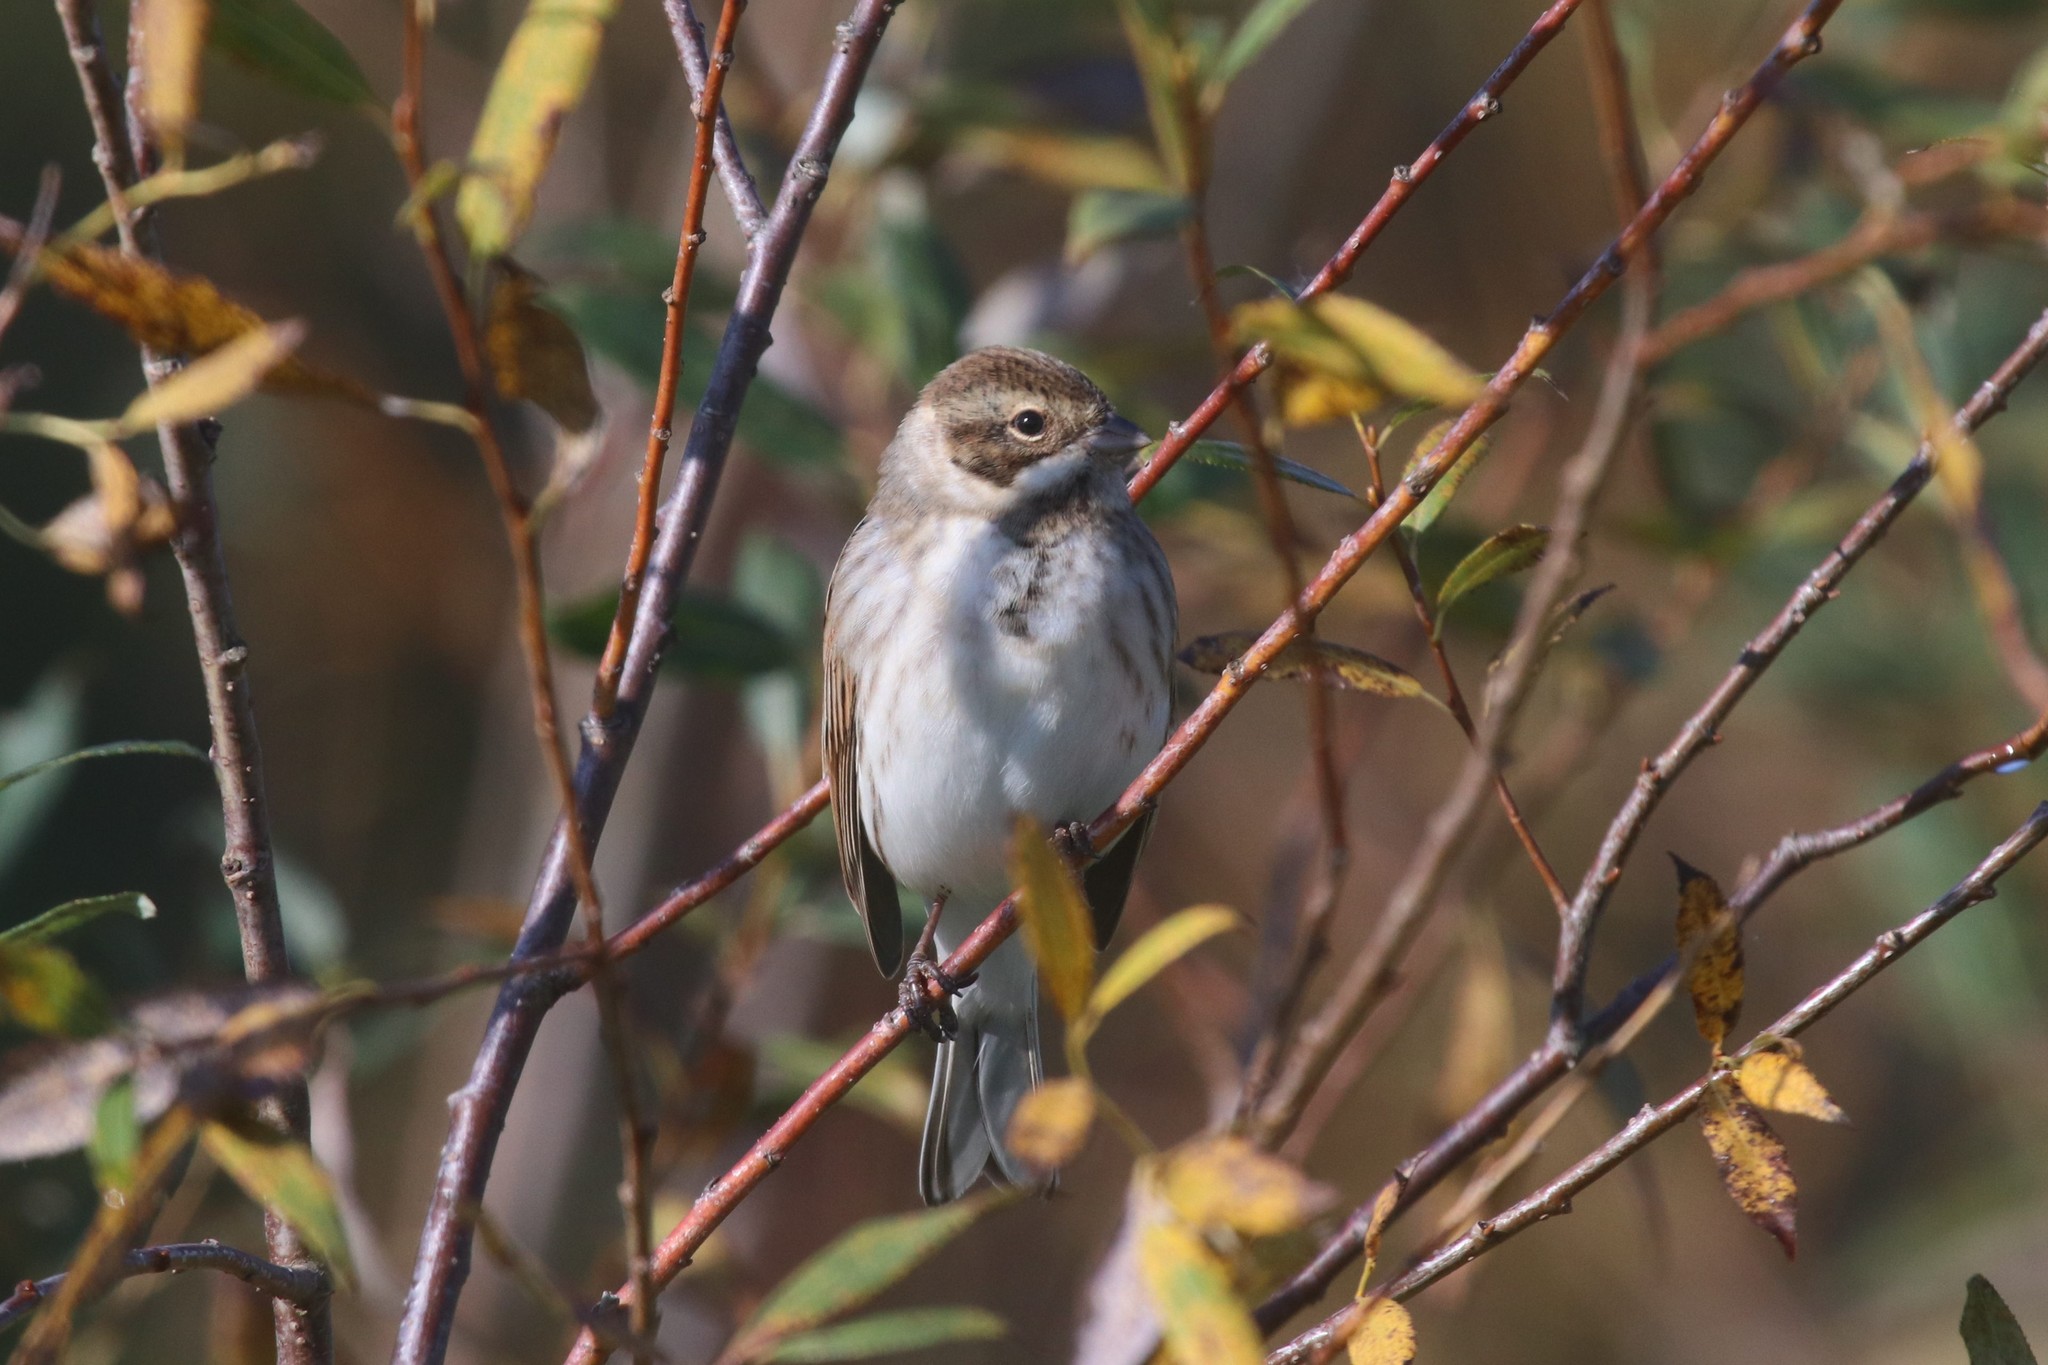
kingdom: Animalia
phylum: Chordata
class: Aves
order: Passeriformes
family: Emberizidae
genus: Emberiza
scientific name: Emberiza schoeniclus
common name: Reed bunting
